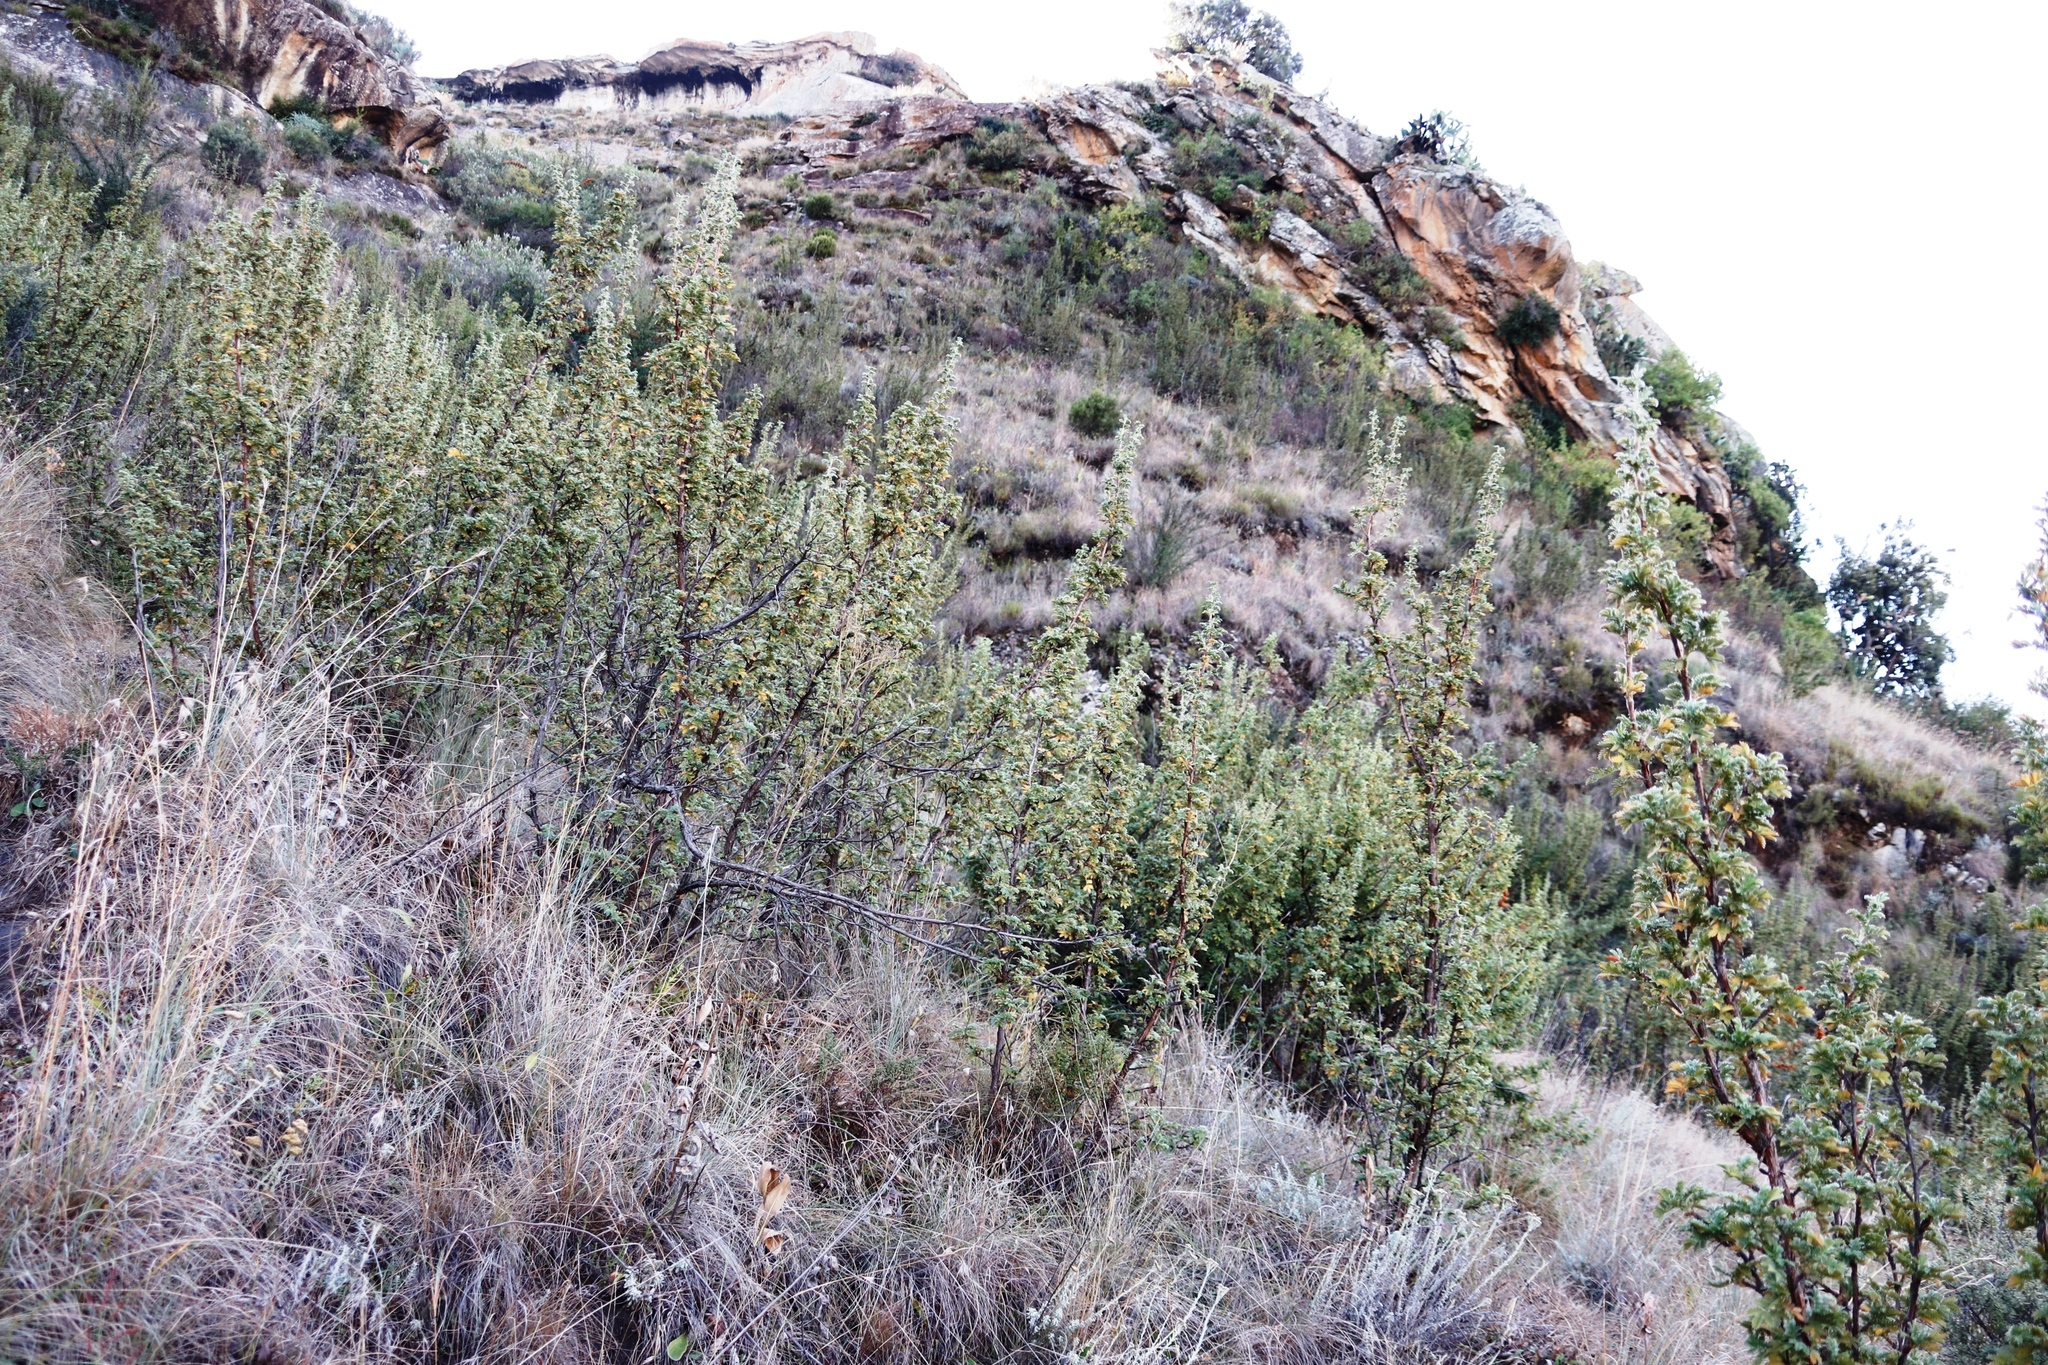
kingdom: Plantae
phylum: Tracheophyta
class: Magnoliopsida
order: Rosales
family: Rosaceae
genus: Leucosidea
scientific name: Leucosidea sericea
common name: Oldwood
